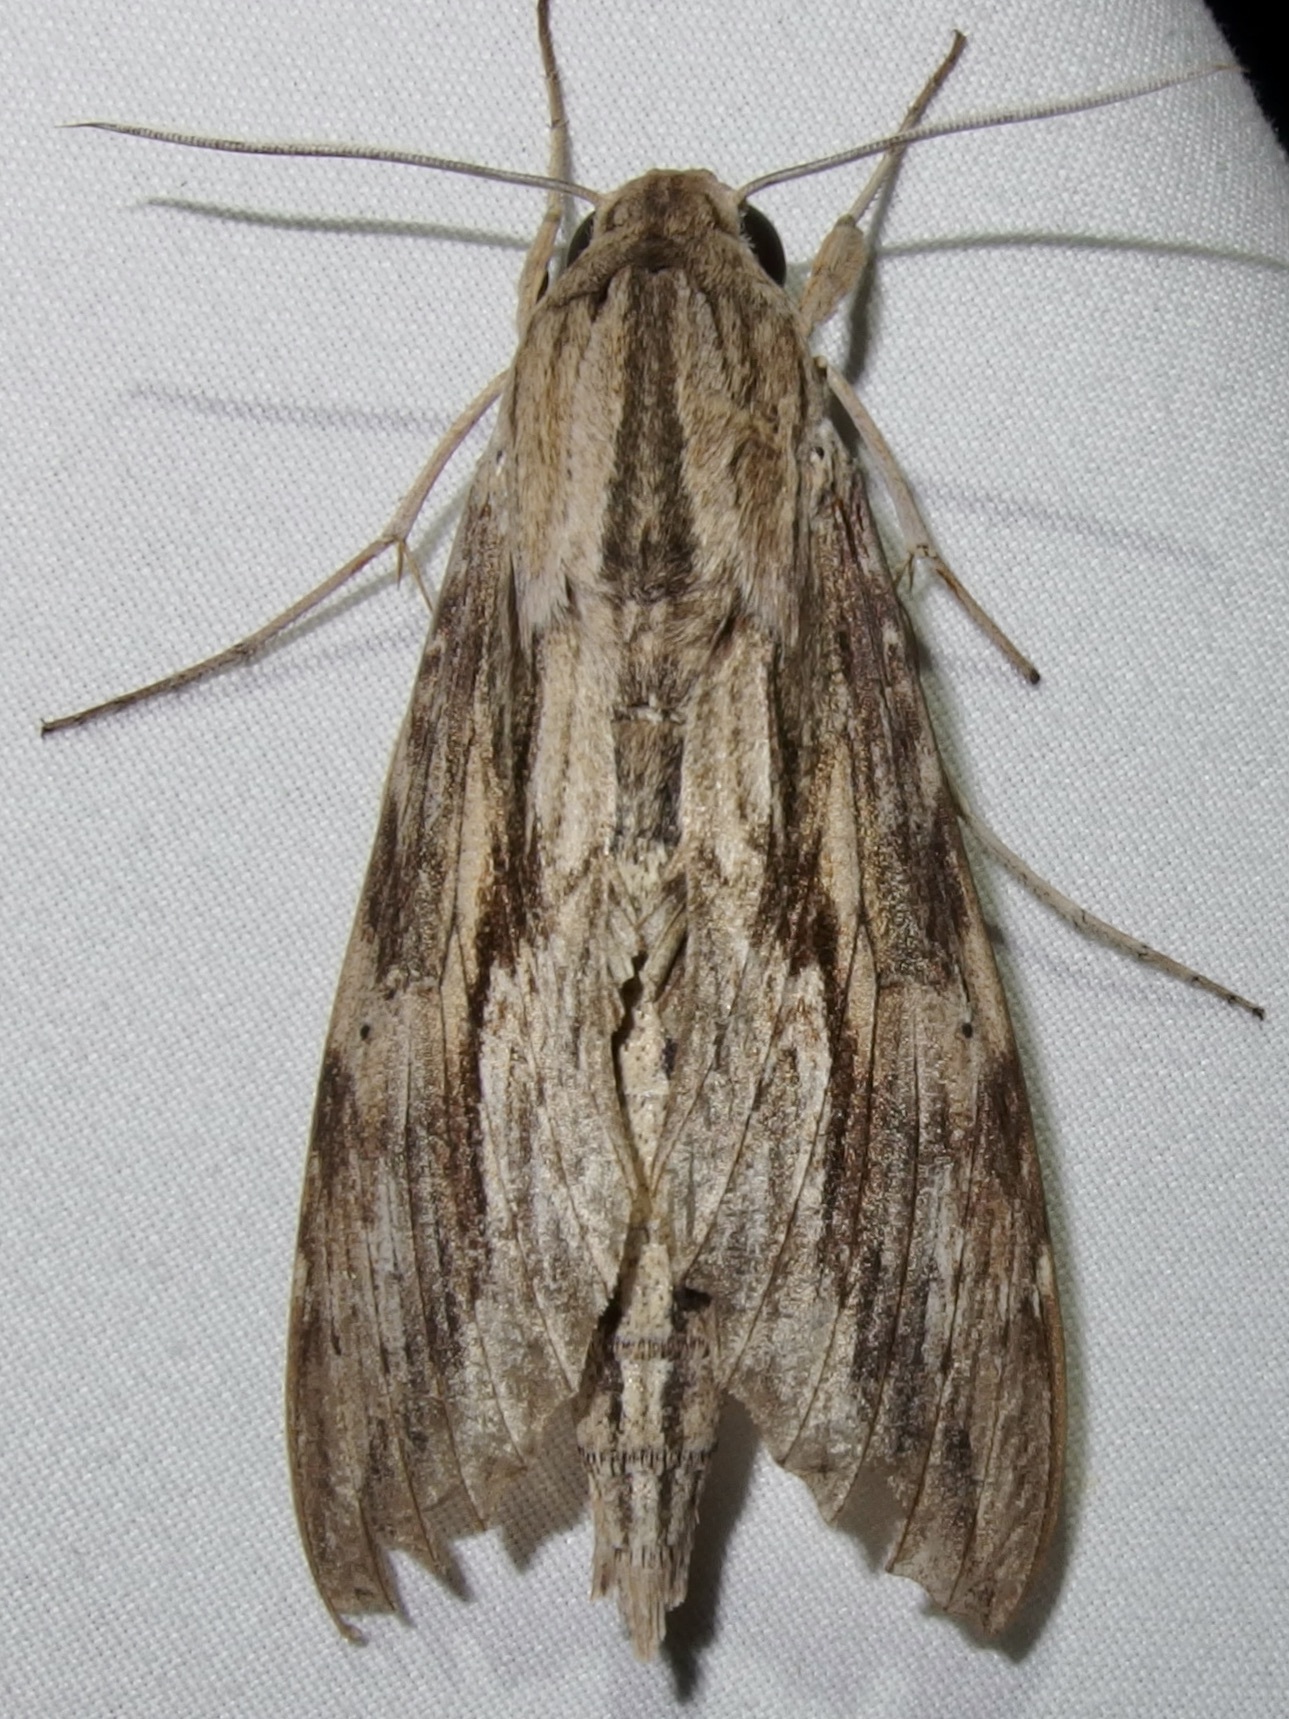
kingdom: Animalia
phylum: Arthropoda
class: Insecta
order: Lepidoptera
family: Sphingidae
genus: Erinnyis
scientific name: Erinnyis ello
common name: Ello sphinx
